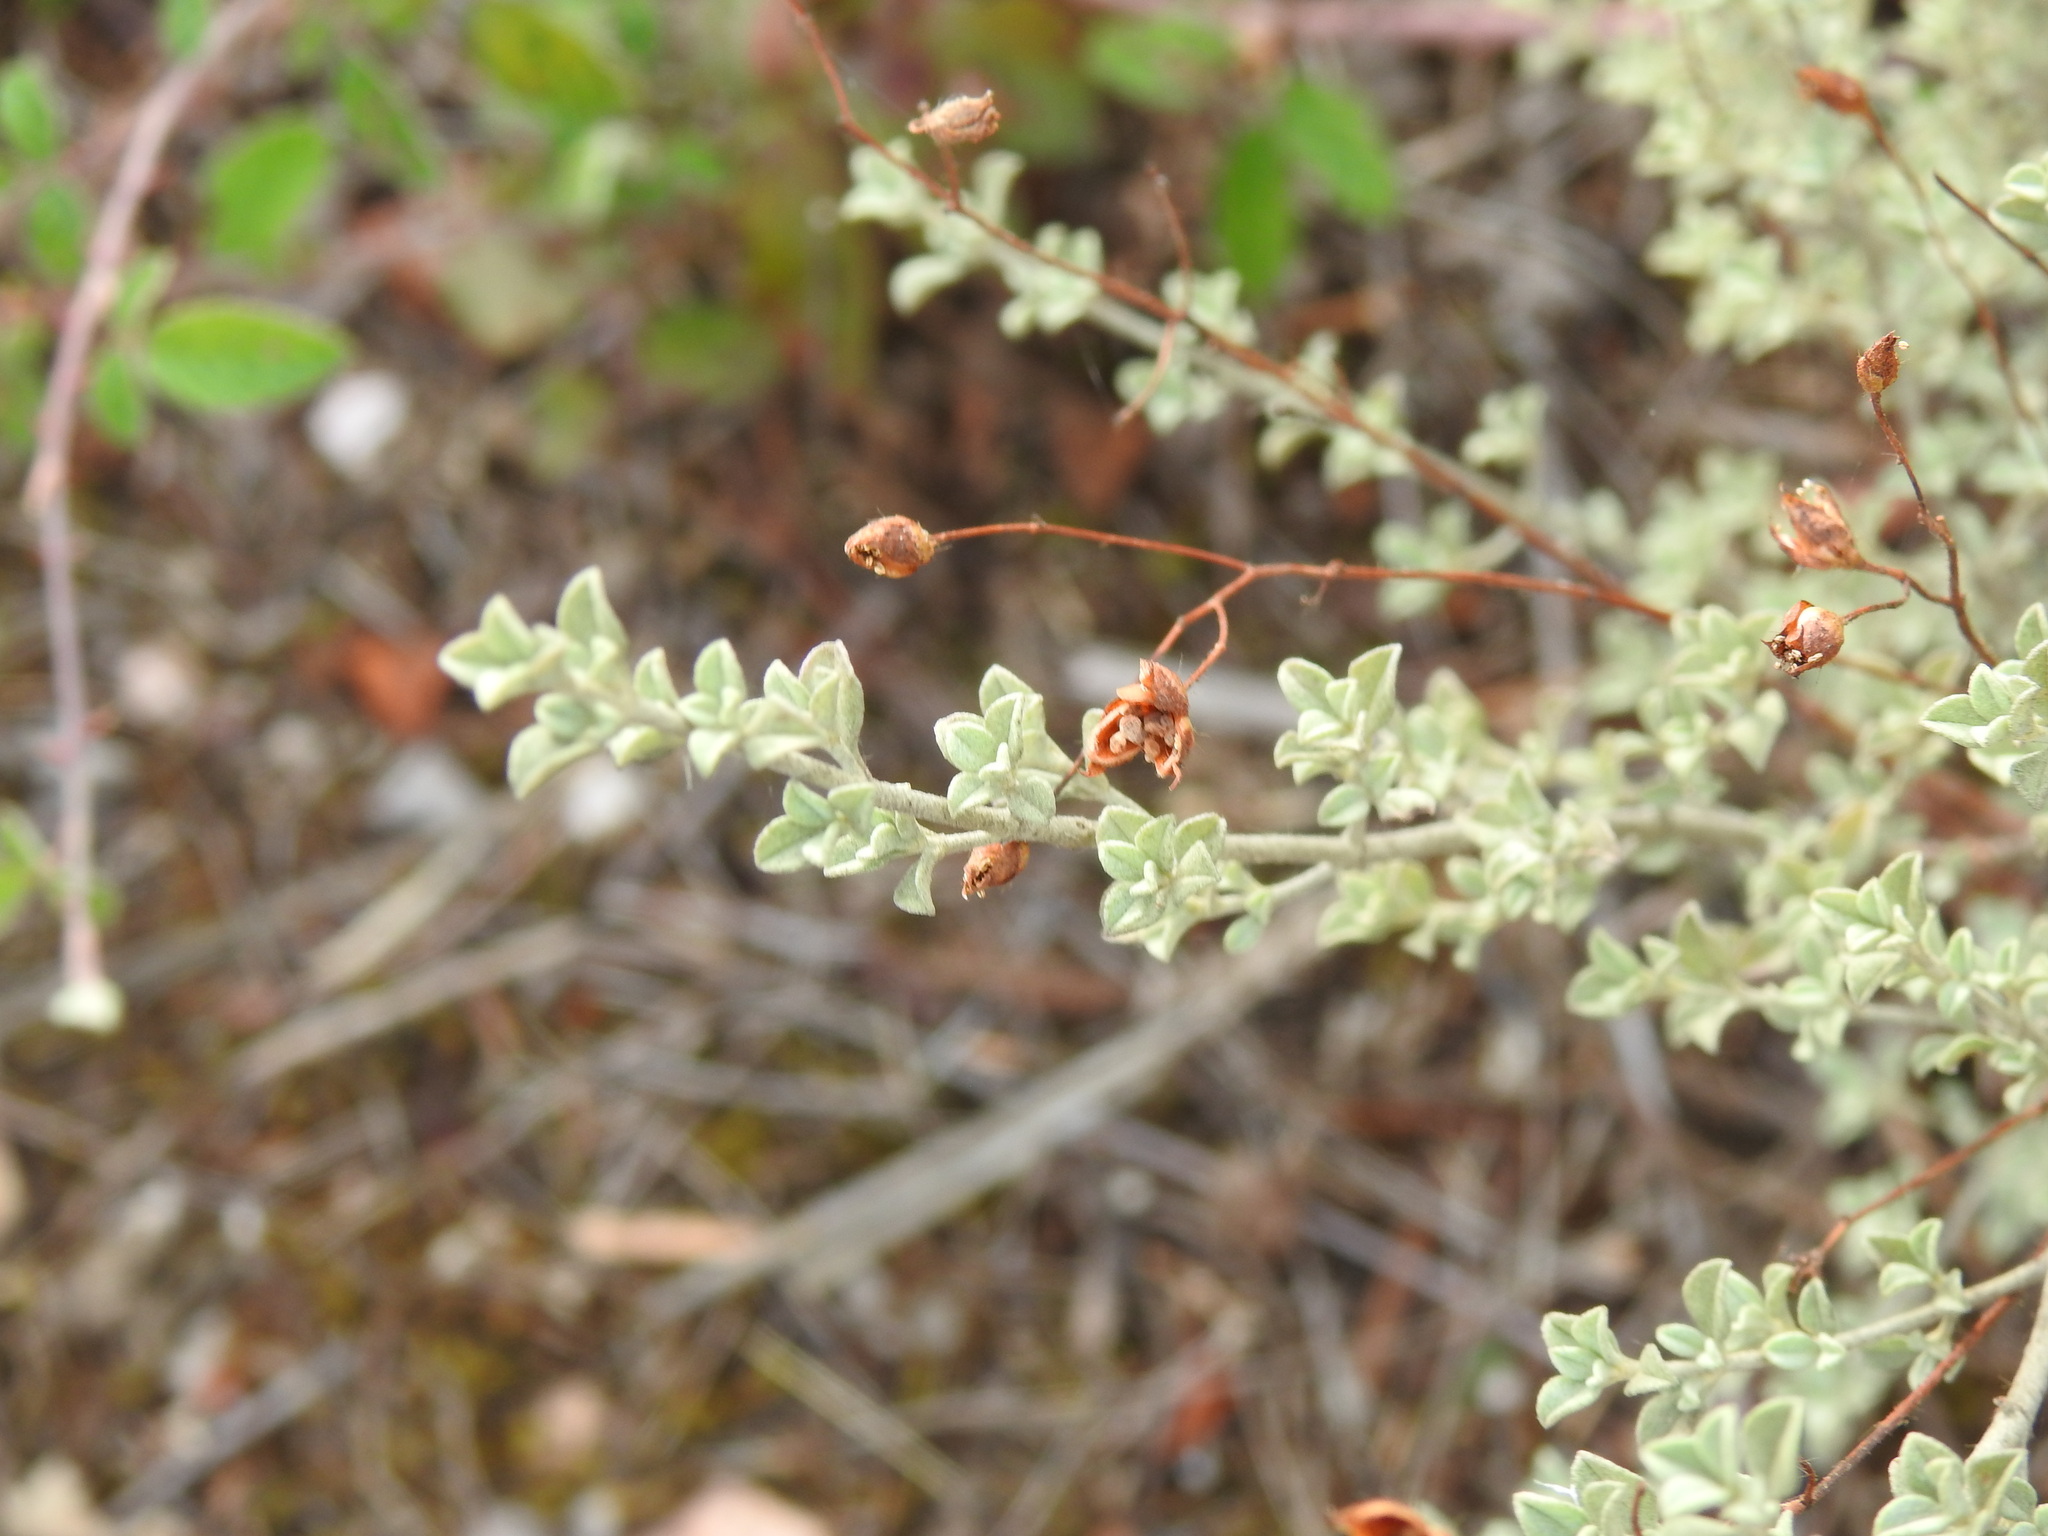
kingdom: Plantae
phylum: Tracheophyta
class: Magnoliopsida
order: Malvales
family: Cistaceae
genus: Cistus
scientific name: Cistus ocymoides
